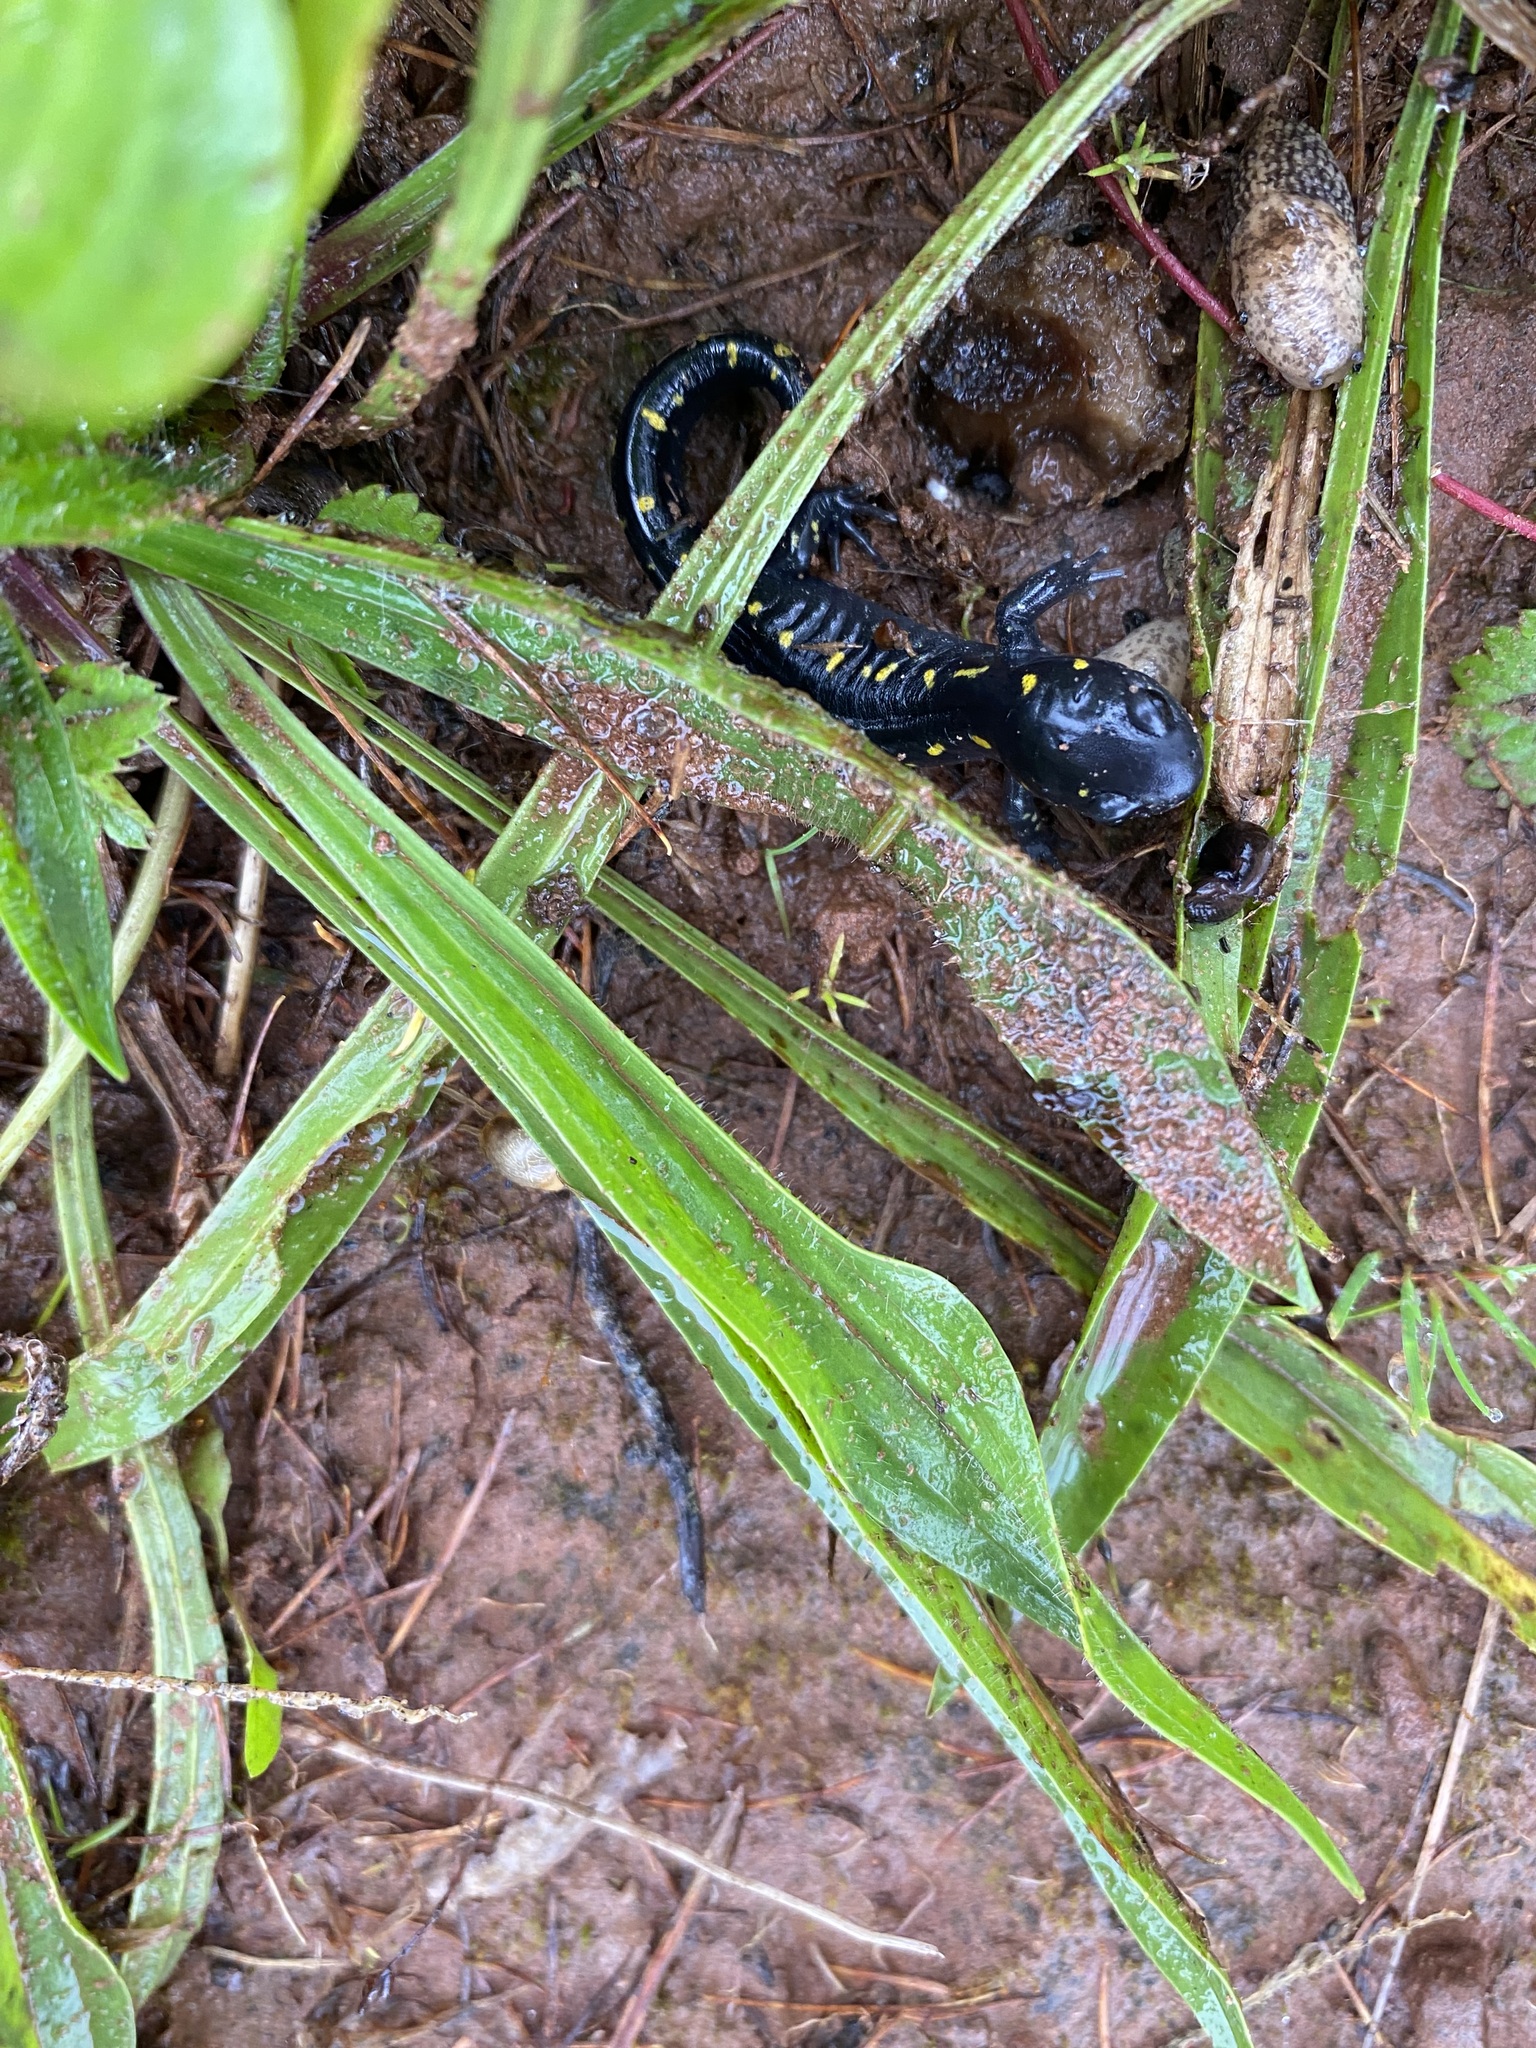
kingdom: Animalia
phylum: Chordata
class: Amphibia
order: Caudata
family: Ambystomatidae
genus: Ambystoma
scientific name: Ambystoma maculatum
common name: Spotted salamander
